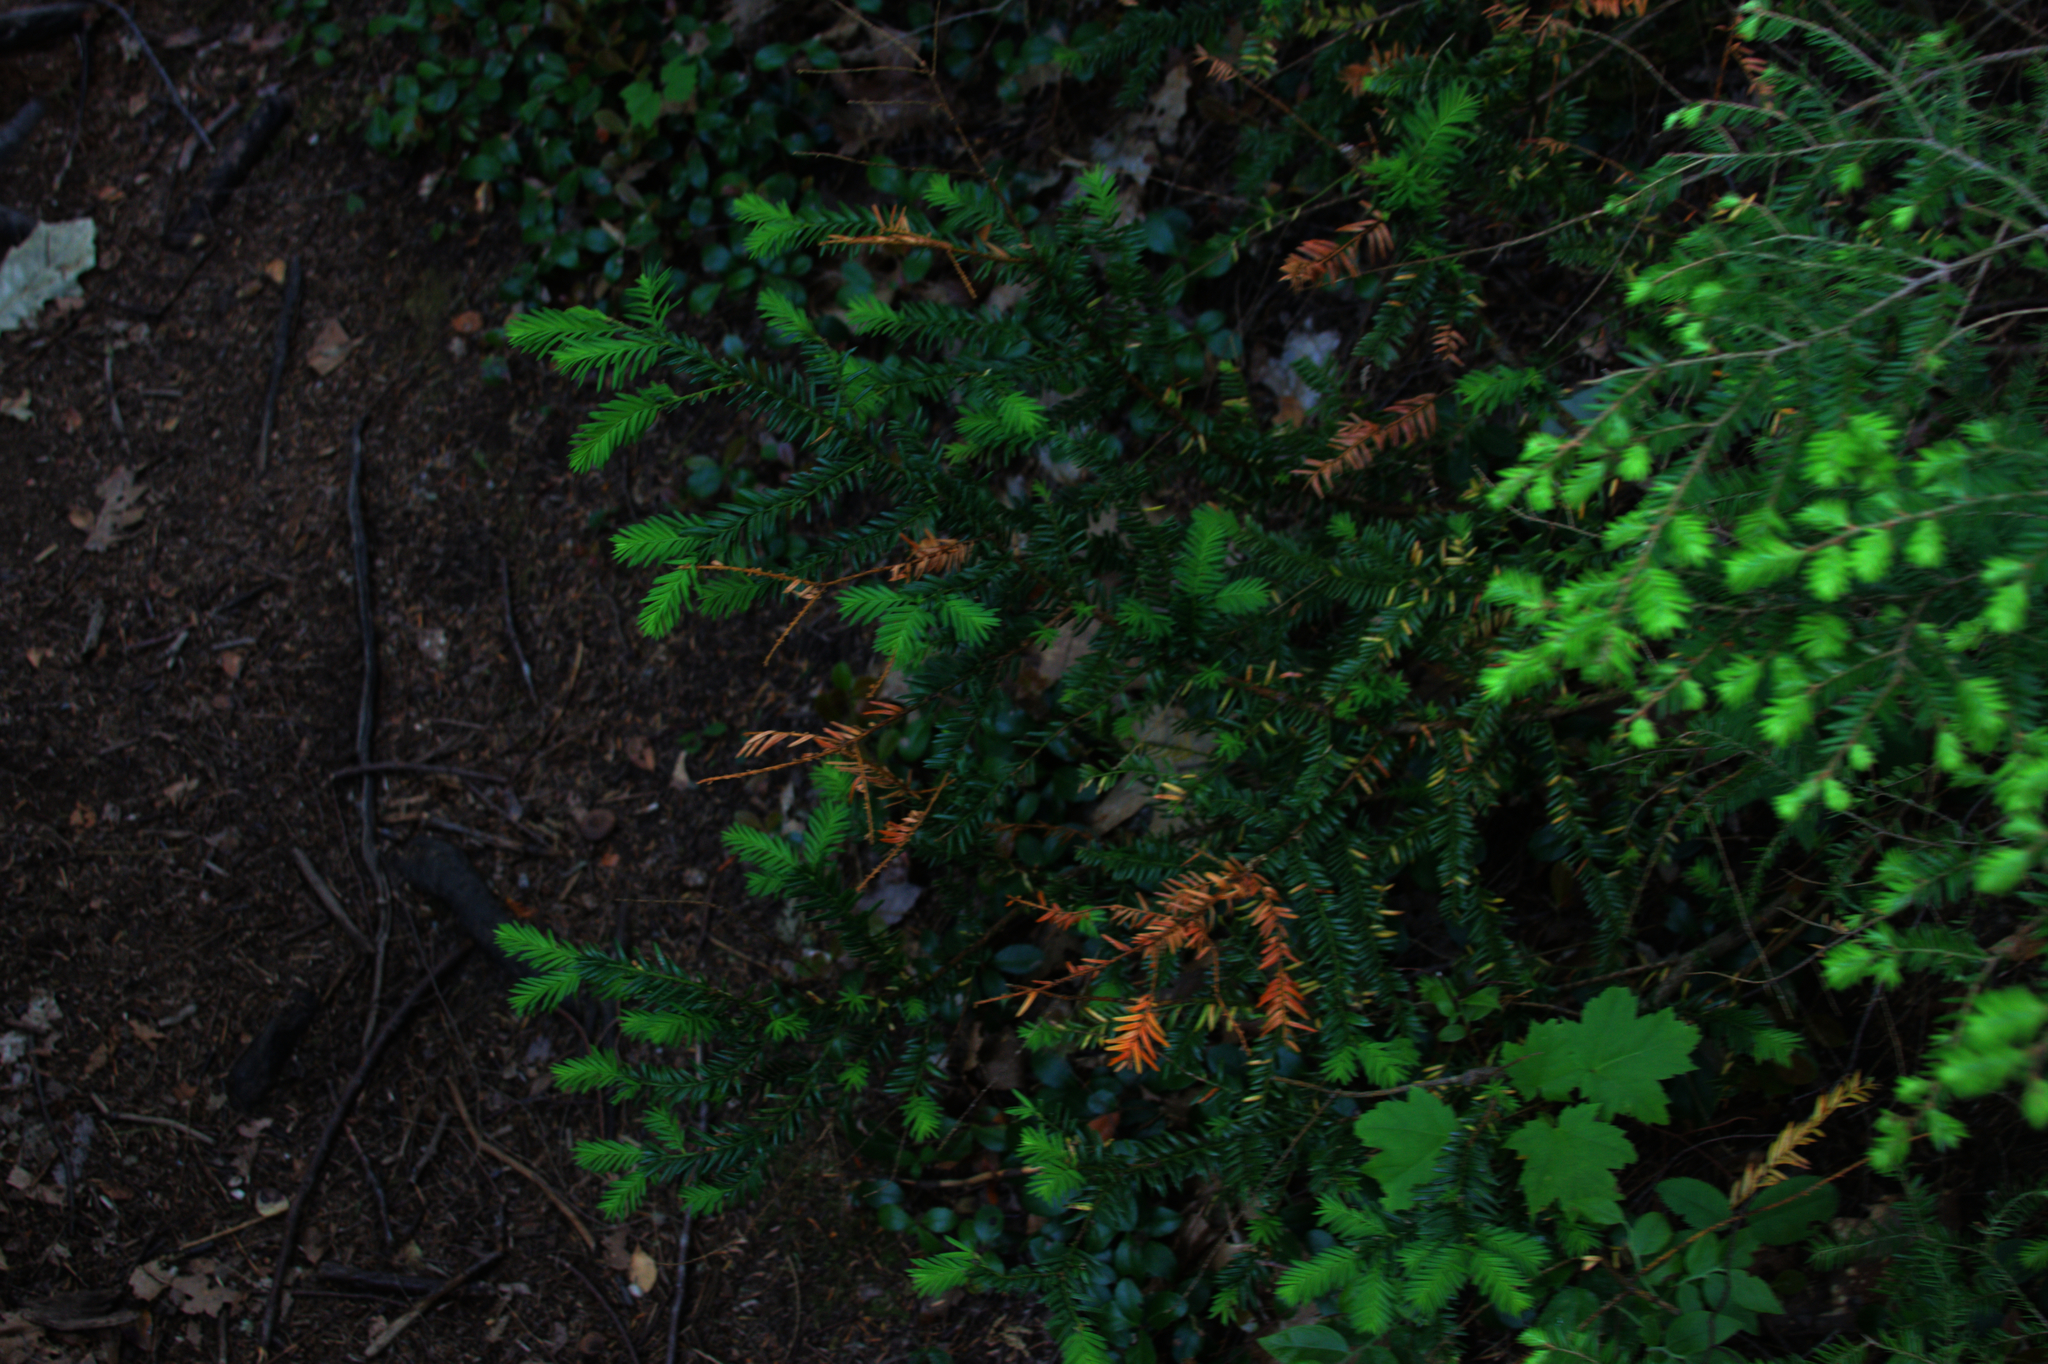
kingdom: Plantae
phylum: Tracheophyta
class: Pinopsida
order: Pinales
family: Pinaceae
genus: Tsuga
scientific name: Tsuga canadensis
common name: Eastern hemlock
